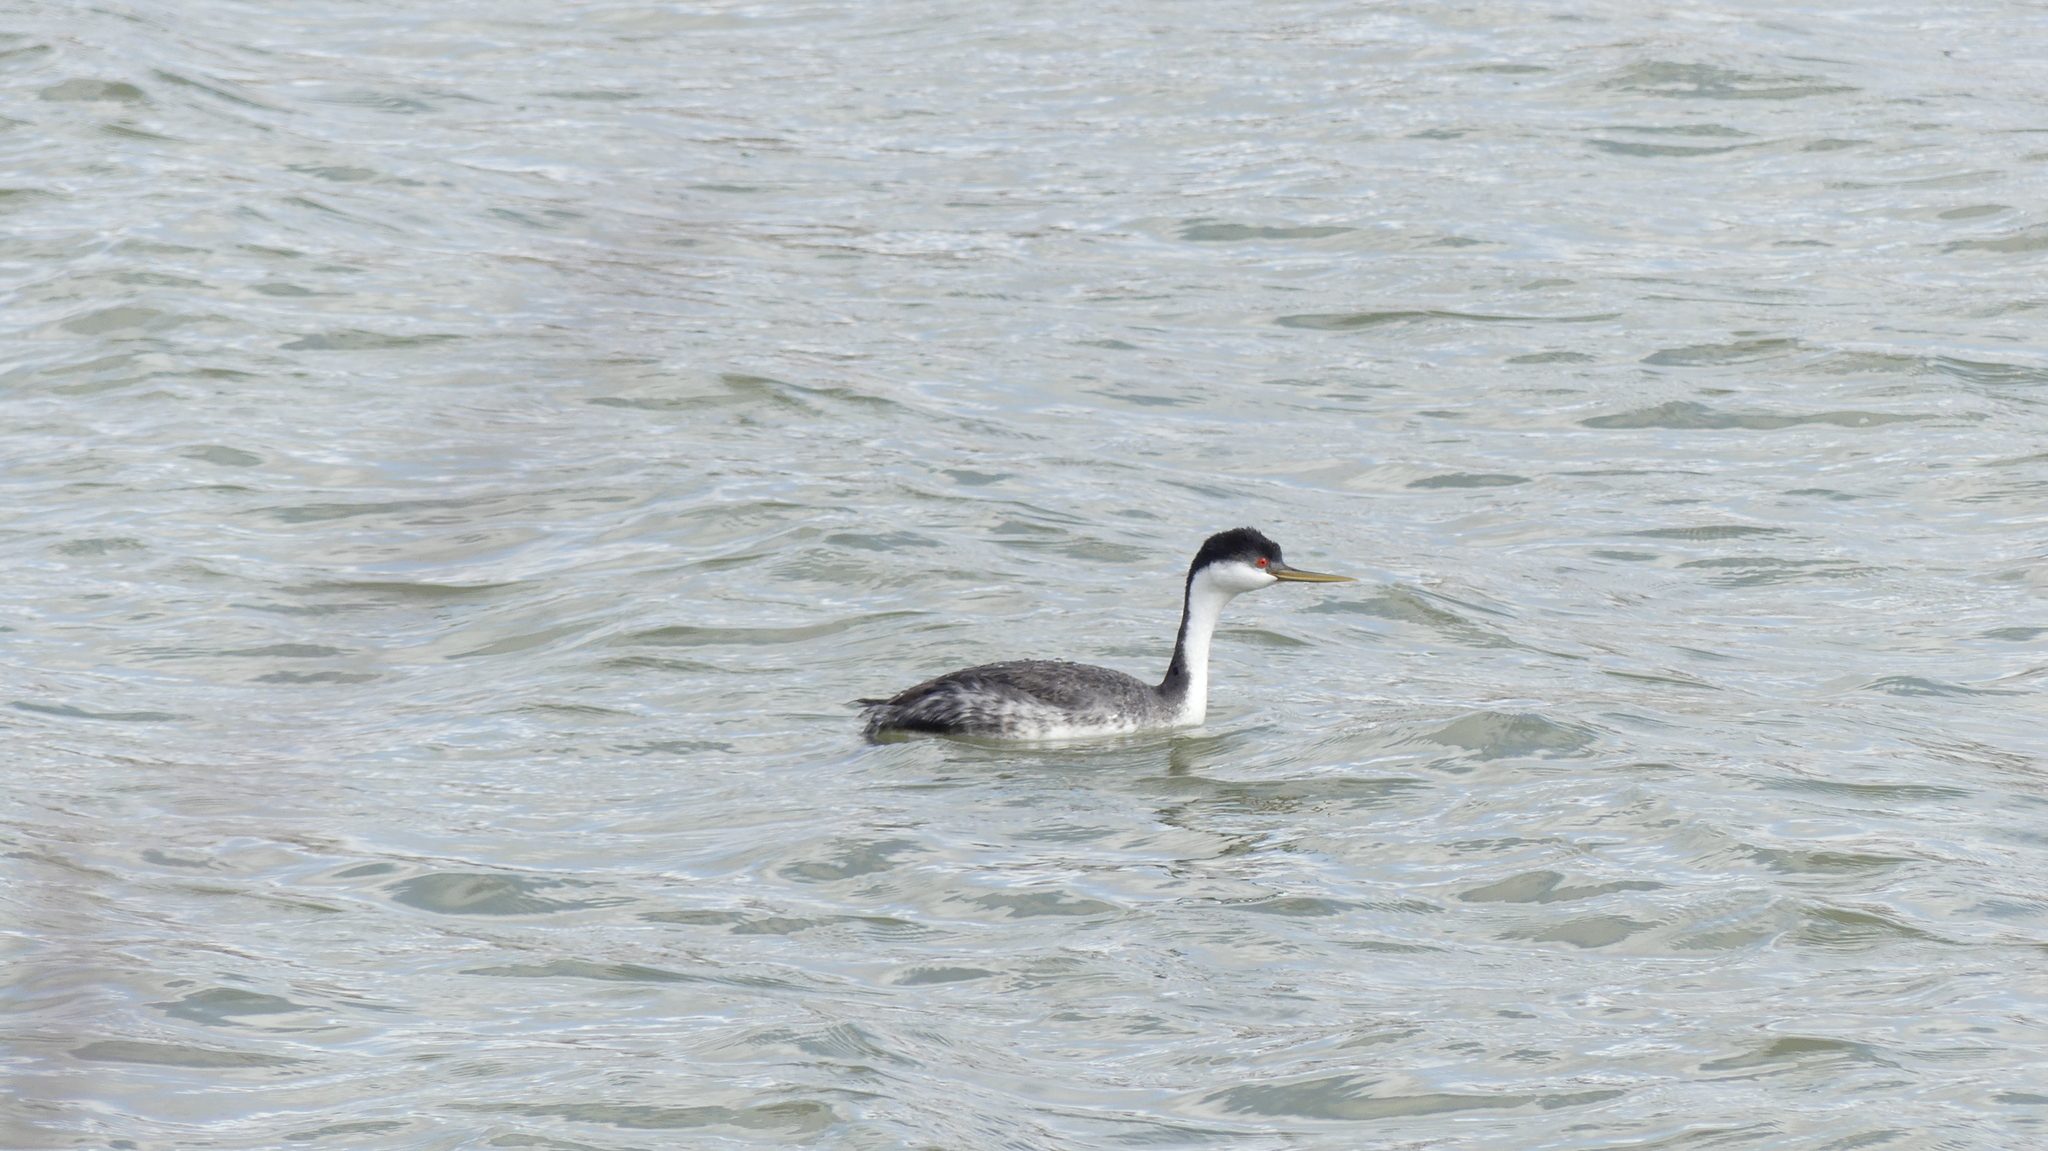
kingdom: Animalia
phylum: Chordata
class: Aves
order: Podicipediformes
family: Podicipedidae
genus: Aechmophorus
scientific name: Aechmophorus occidentalis
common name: Western grebe
